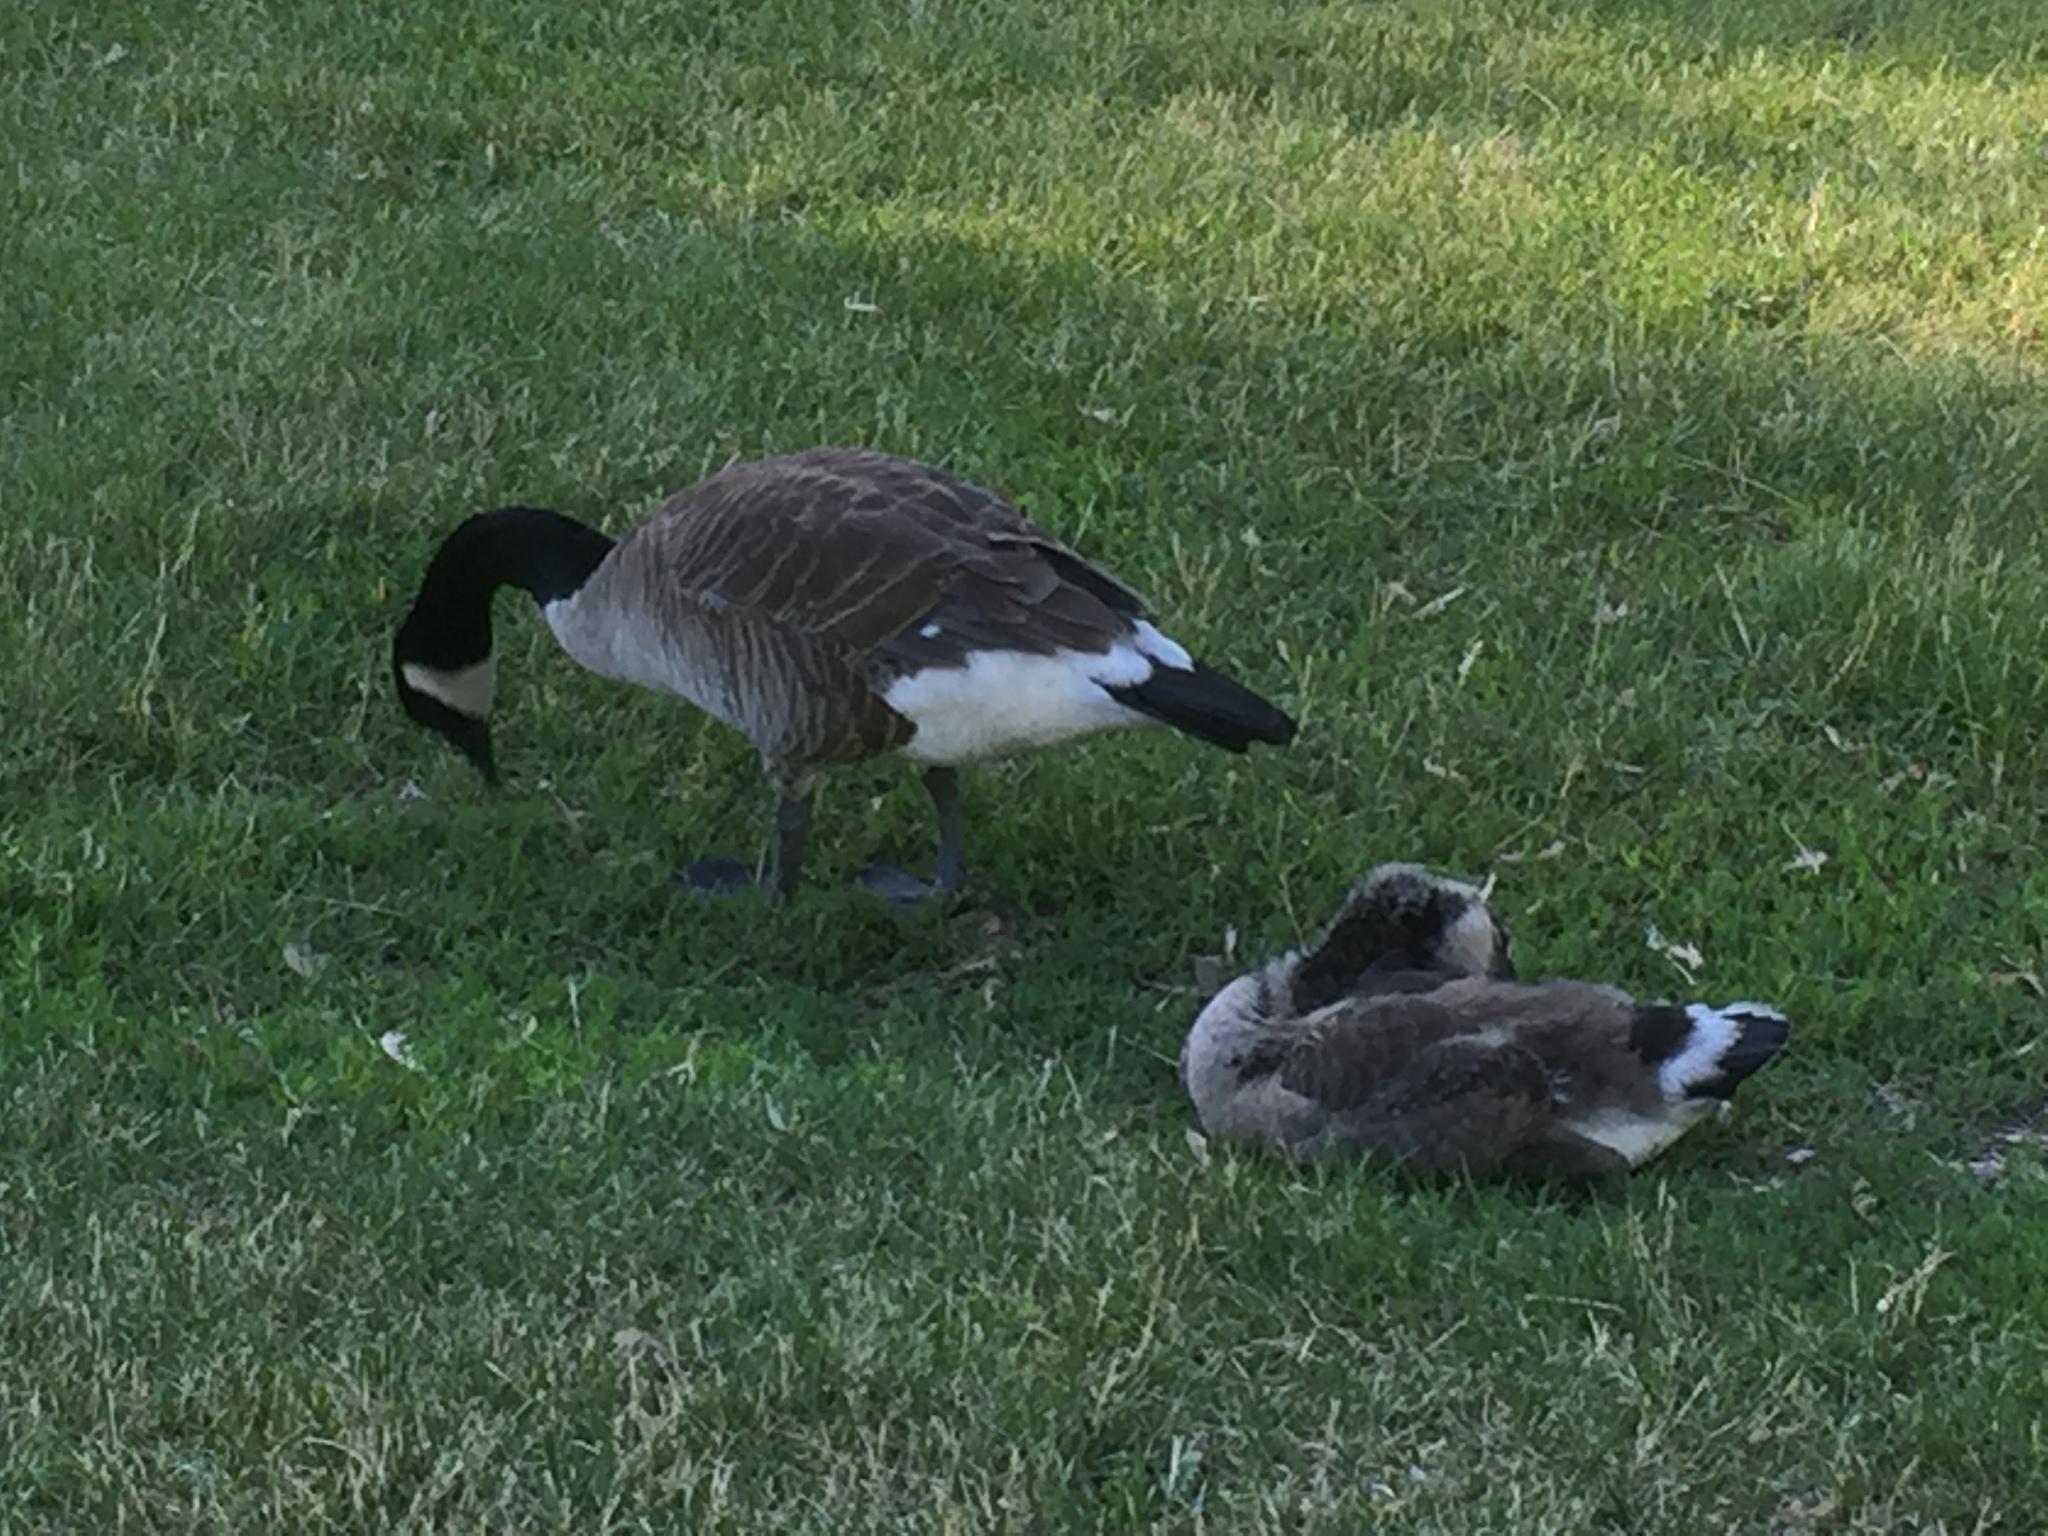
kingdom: Animalia
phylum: Chordata
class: Aves
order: Anseriformes
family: Anatidae
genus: Branta
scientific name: Branta canadensis
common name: Canada goose
